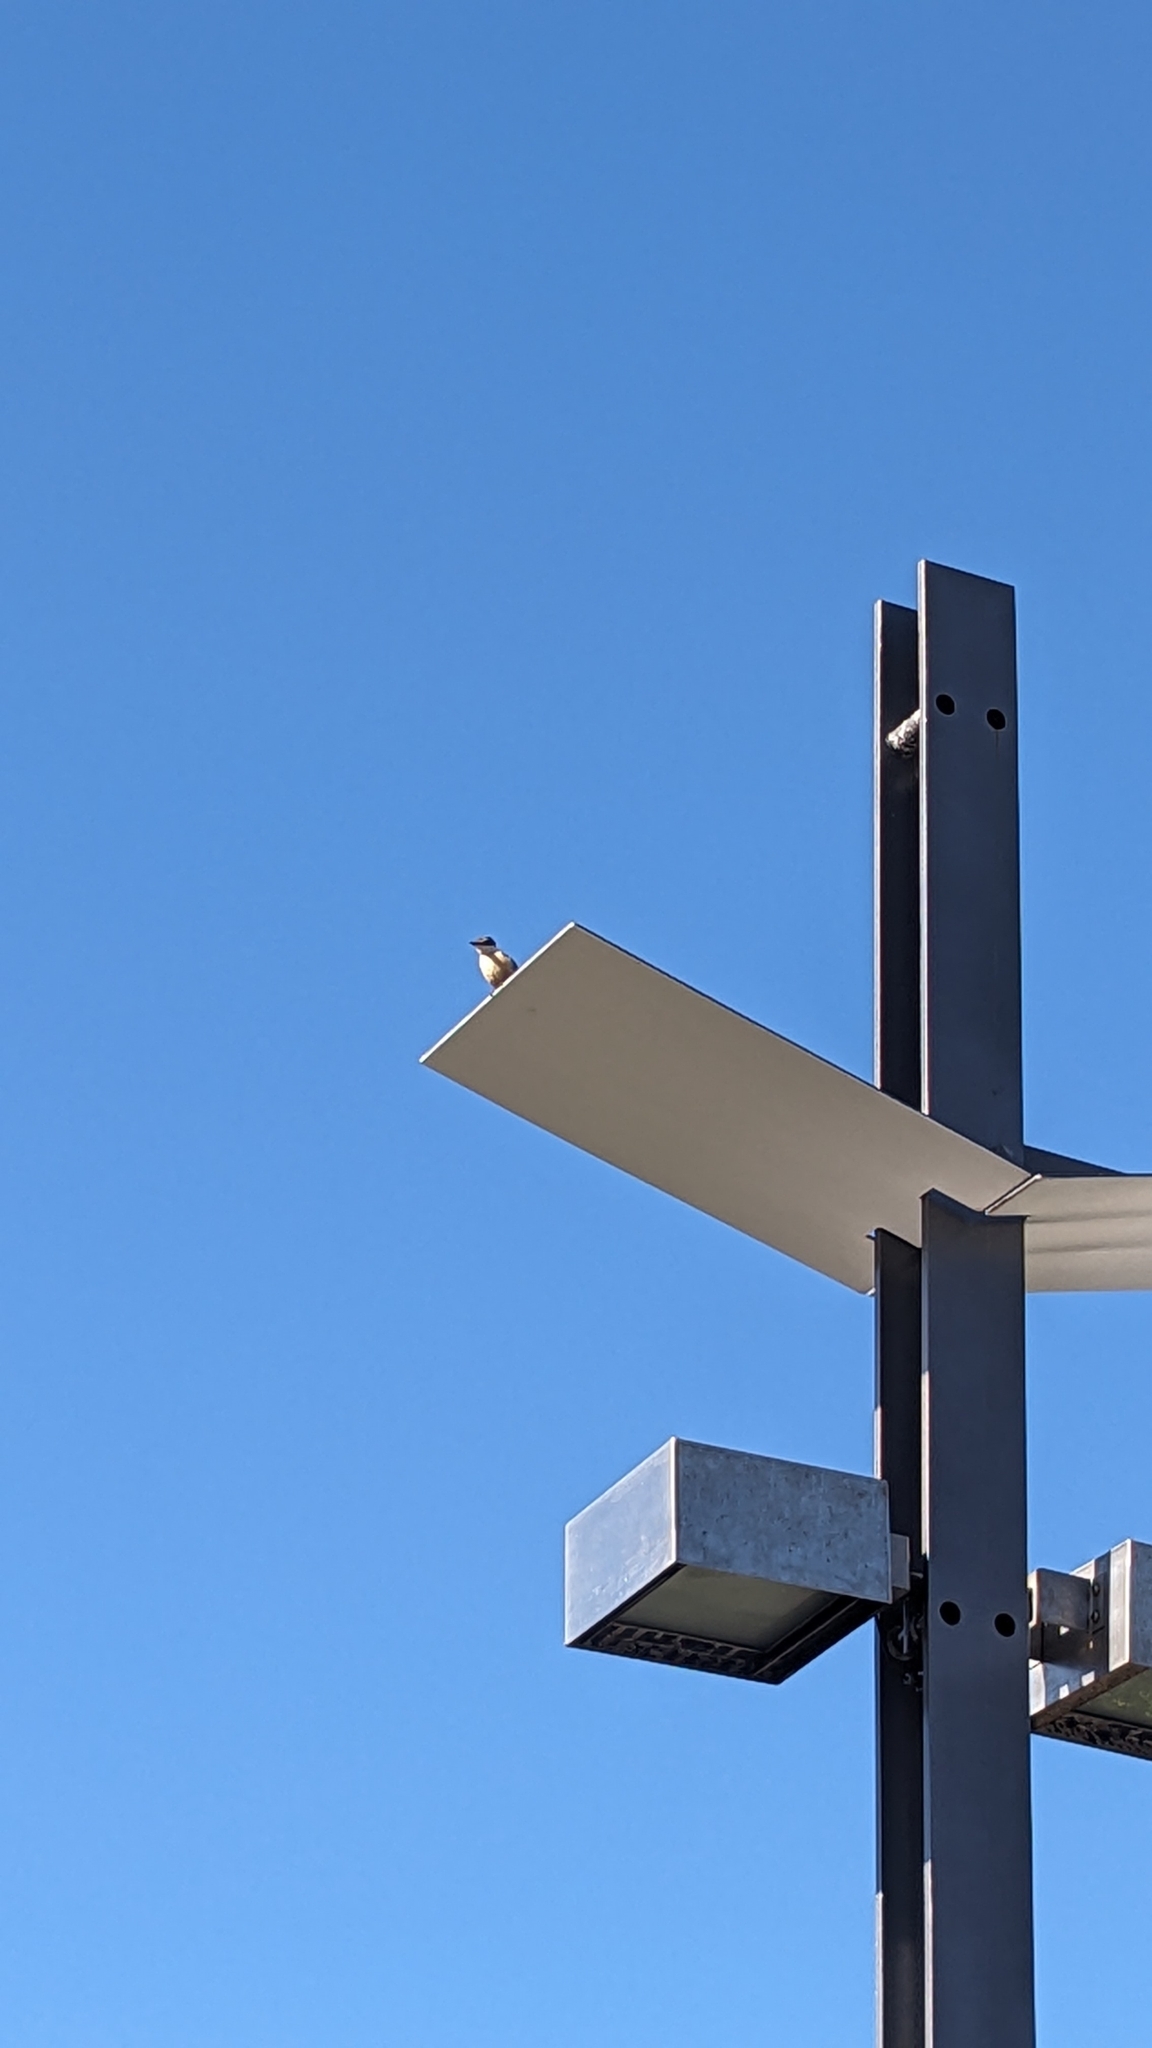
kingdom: Animalia
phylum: Chordata
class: Aves
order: Coraciiformes
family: Alcedinidae
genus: Todiramphus
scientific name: Todiramphus sanctus
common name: Sacred kingfisher
